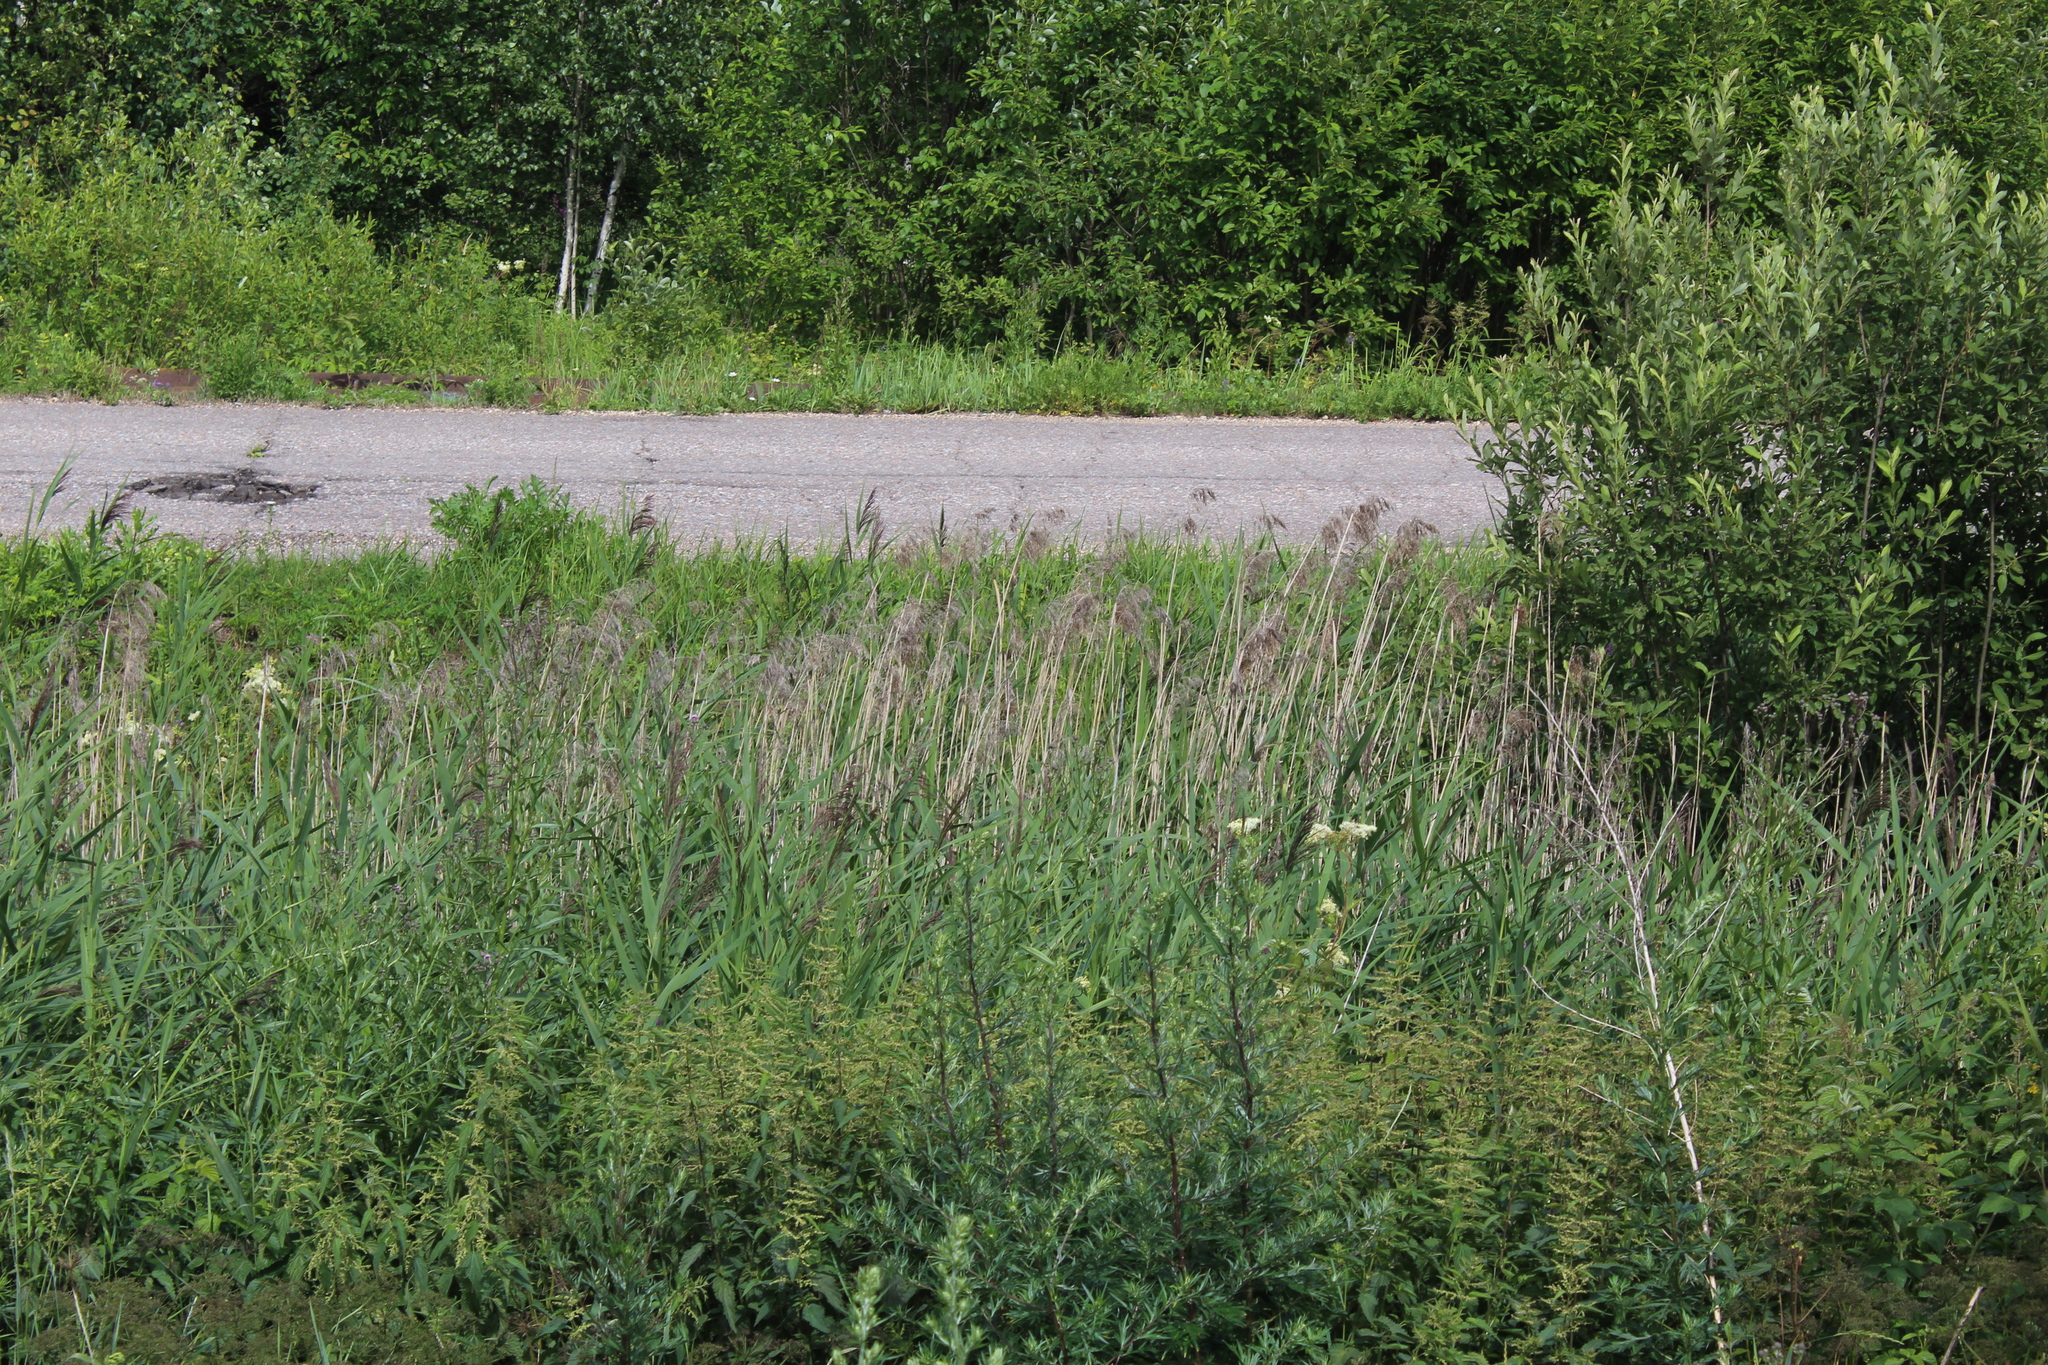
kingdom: Plantae
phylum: Tracheophyta
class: Liliopsida
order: Poales
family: Poaceae
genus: Phragmites
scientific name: Phragmites australis
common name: Common reed
